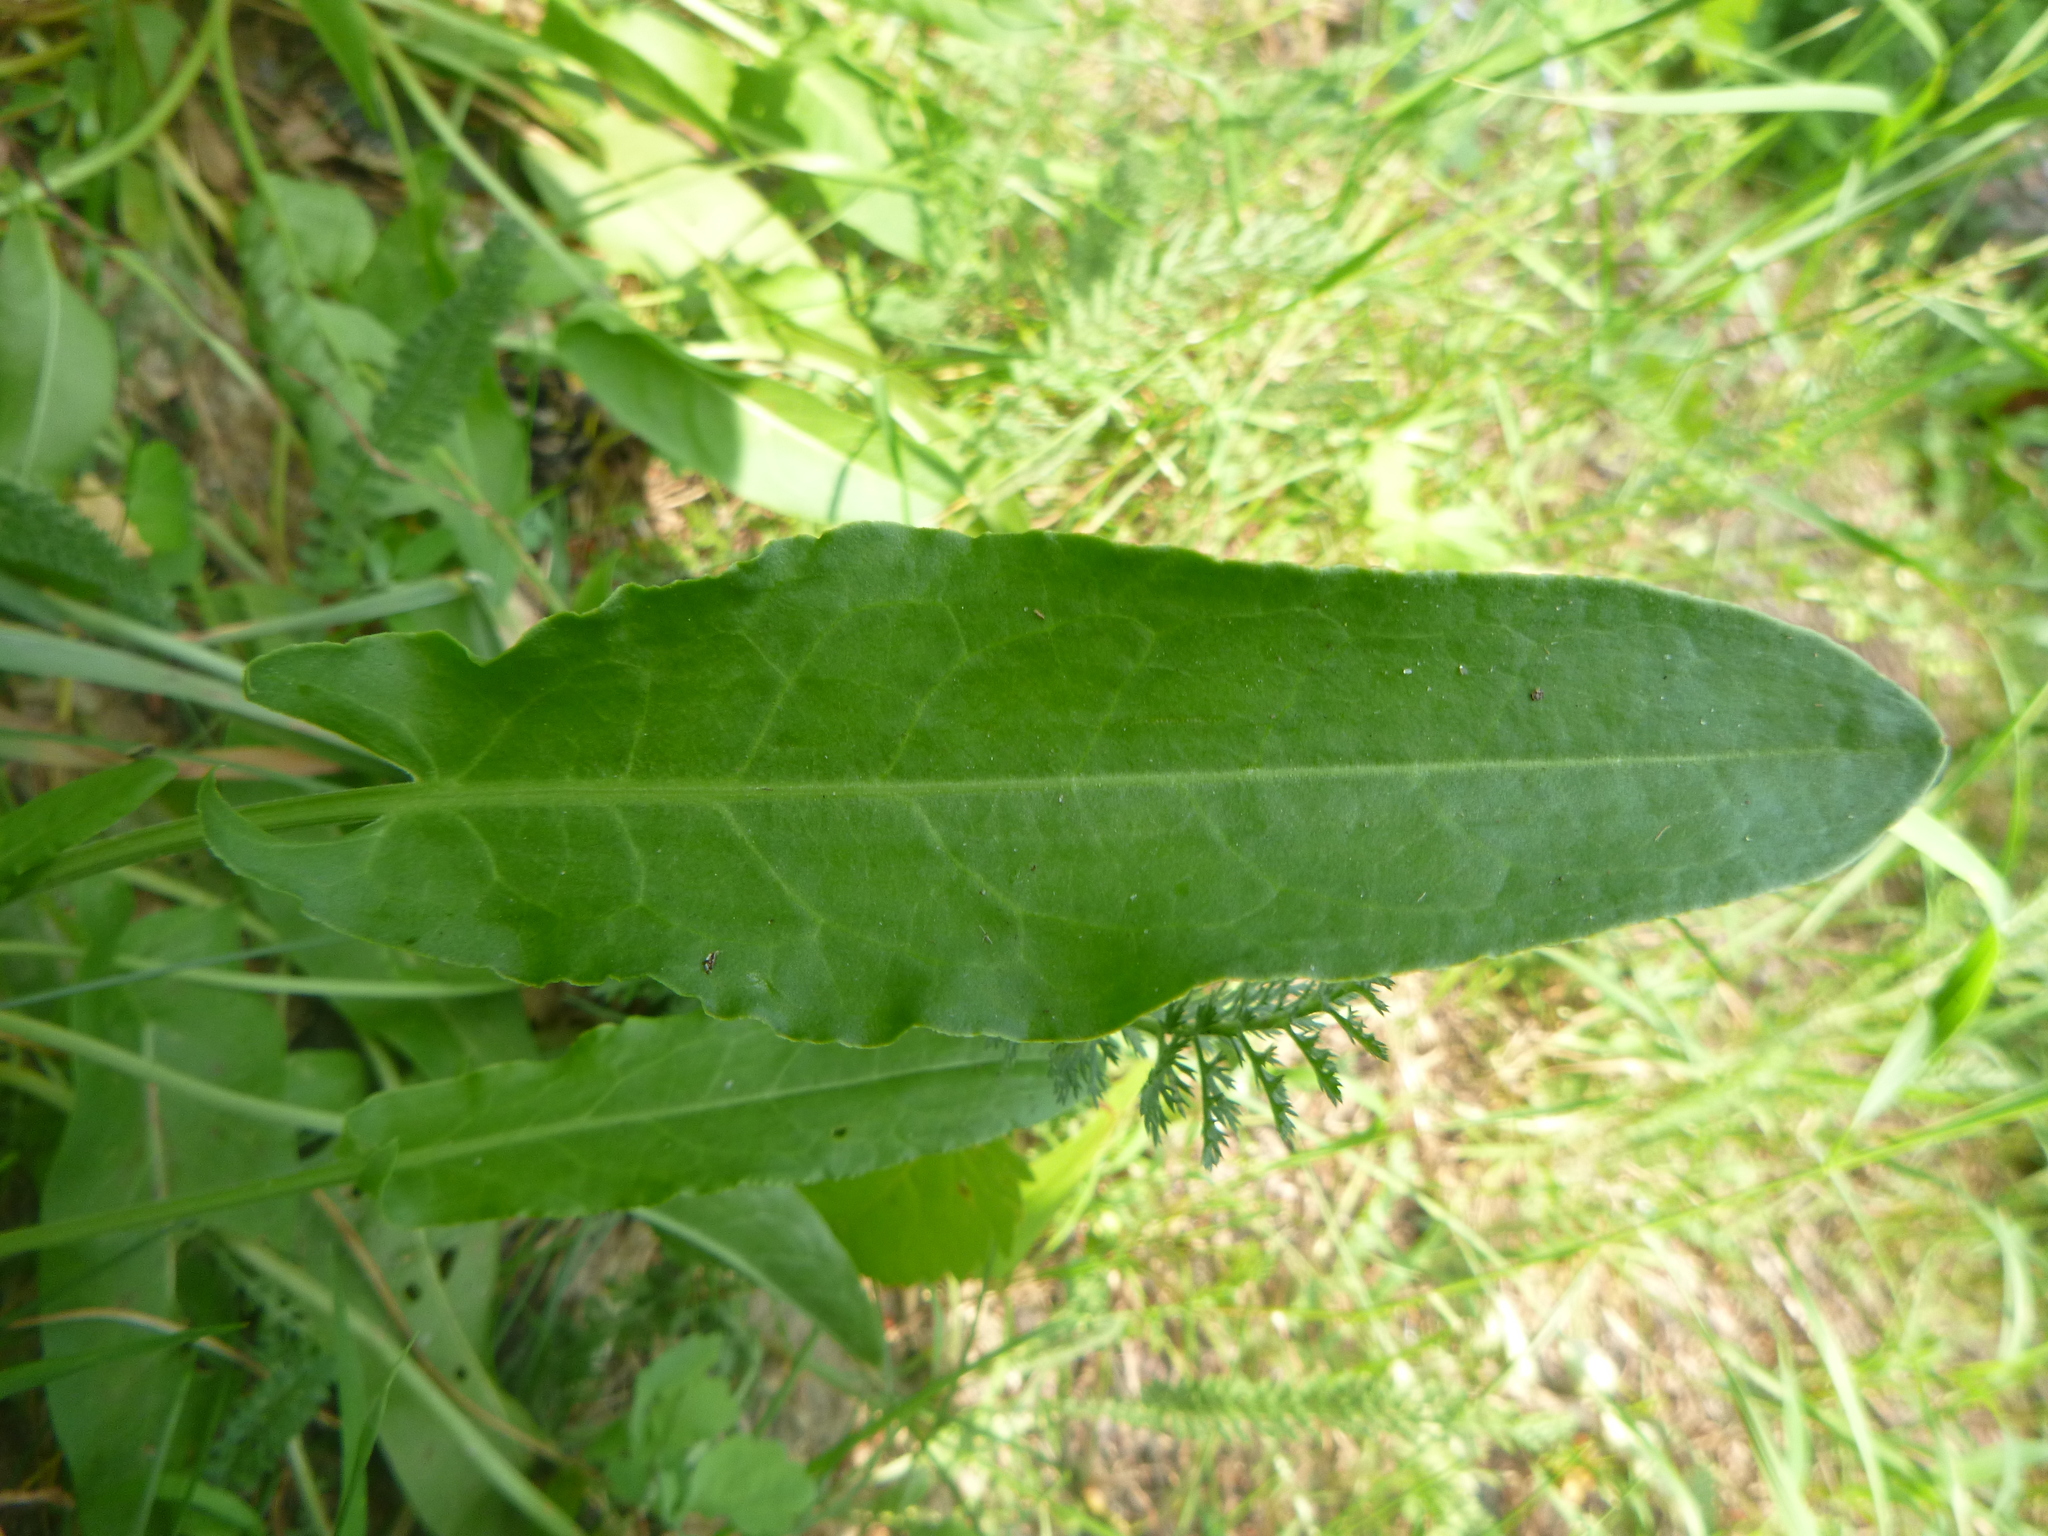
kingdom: Plantae
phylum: Tracheophyta
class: Magnoliopsida
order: Caryophyllales
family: Polygonaceae
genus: Rumex
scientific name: Rumex acetosa
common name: Garden sorrel
